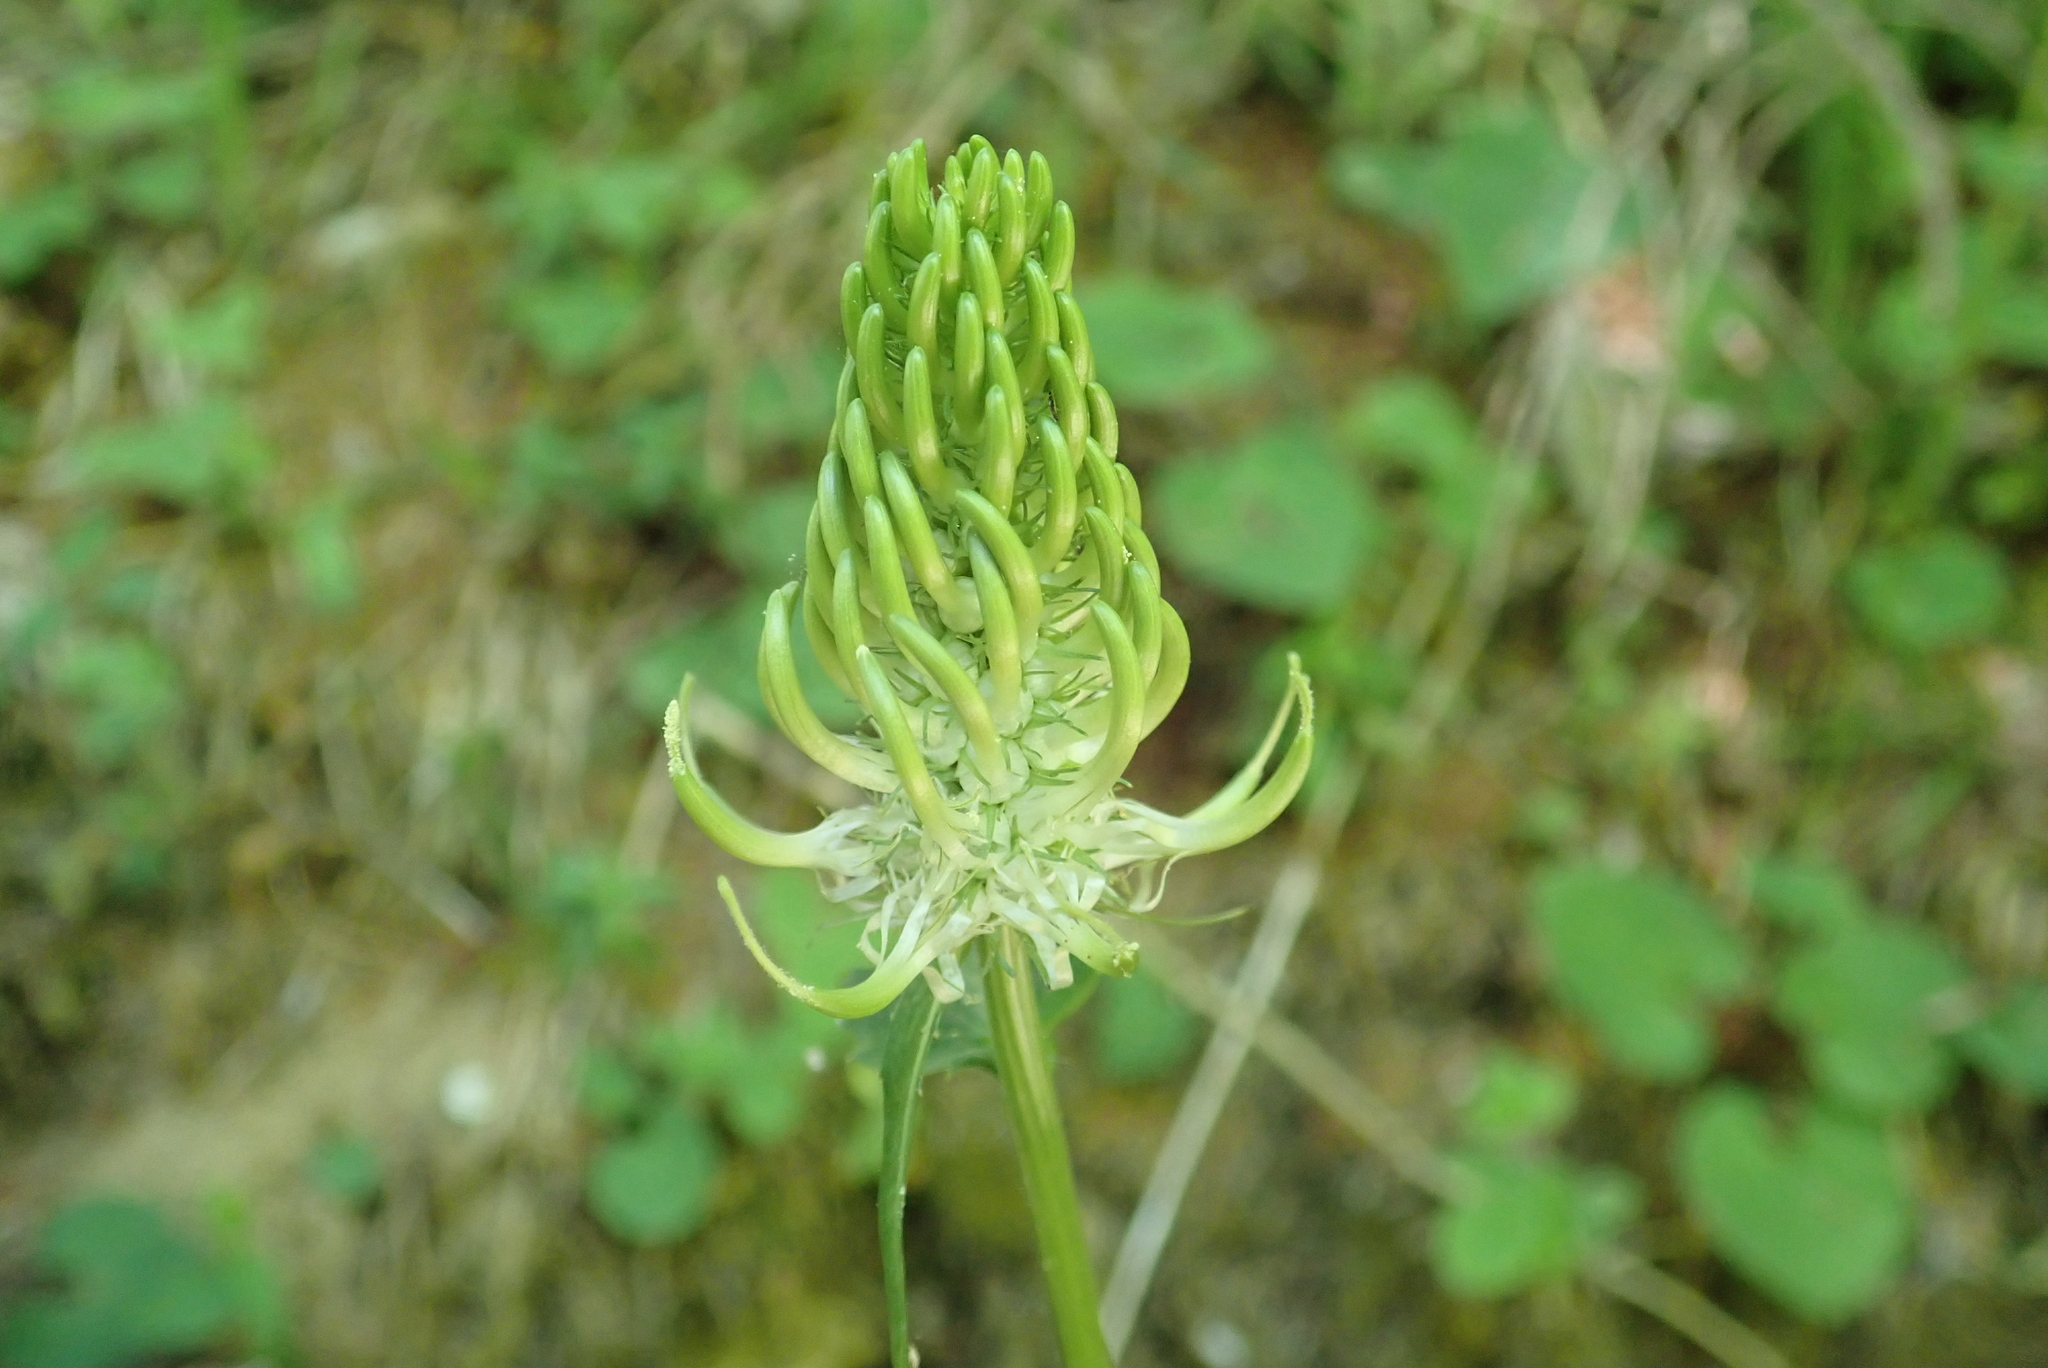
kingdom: Plantae
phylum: Tracheophyta
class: Magnoliopsida
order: Asterales
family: Campanulaceae
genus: Phyteuma
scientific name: Phyteuma spicatum
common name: Spiked rampion
